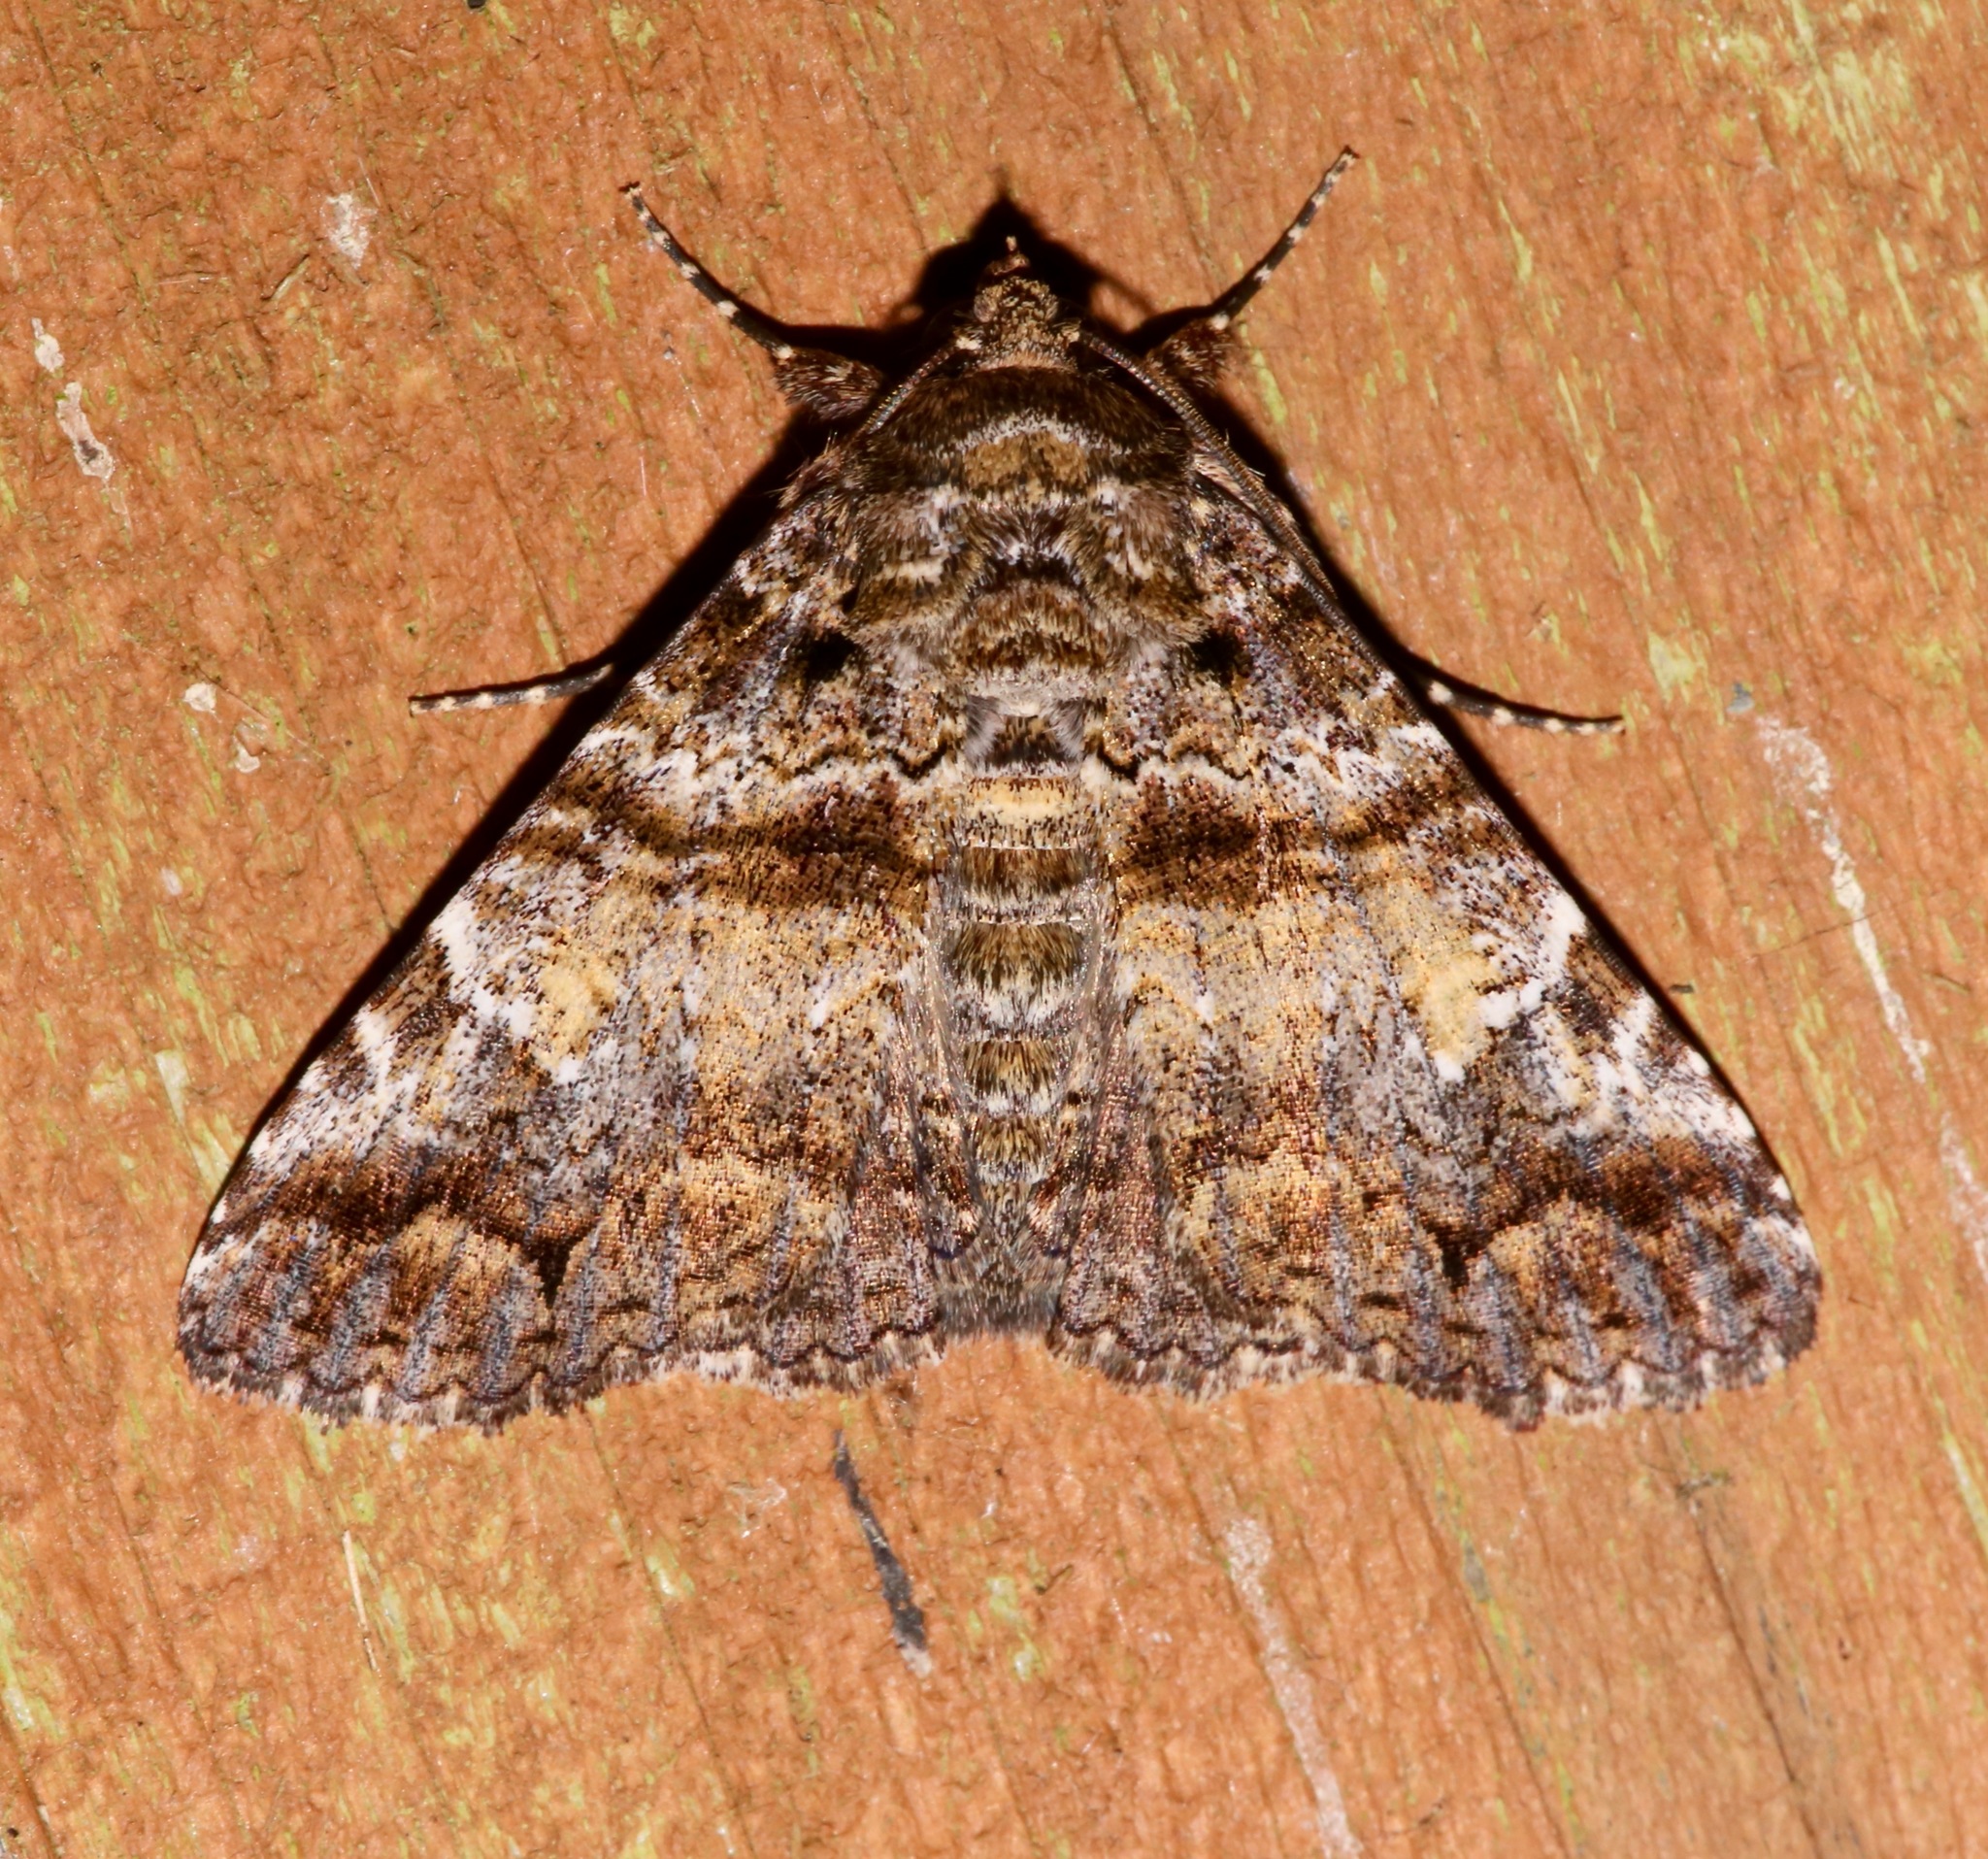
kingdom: Animalia
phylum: Arthropoda
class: Insecta
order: Lepidoptera
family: Erebidae
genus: Metria
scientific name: Metria amella
